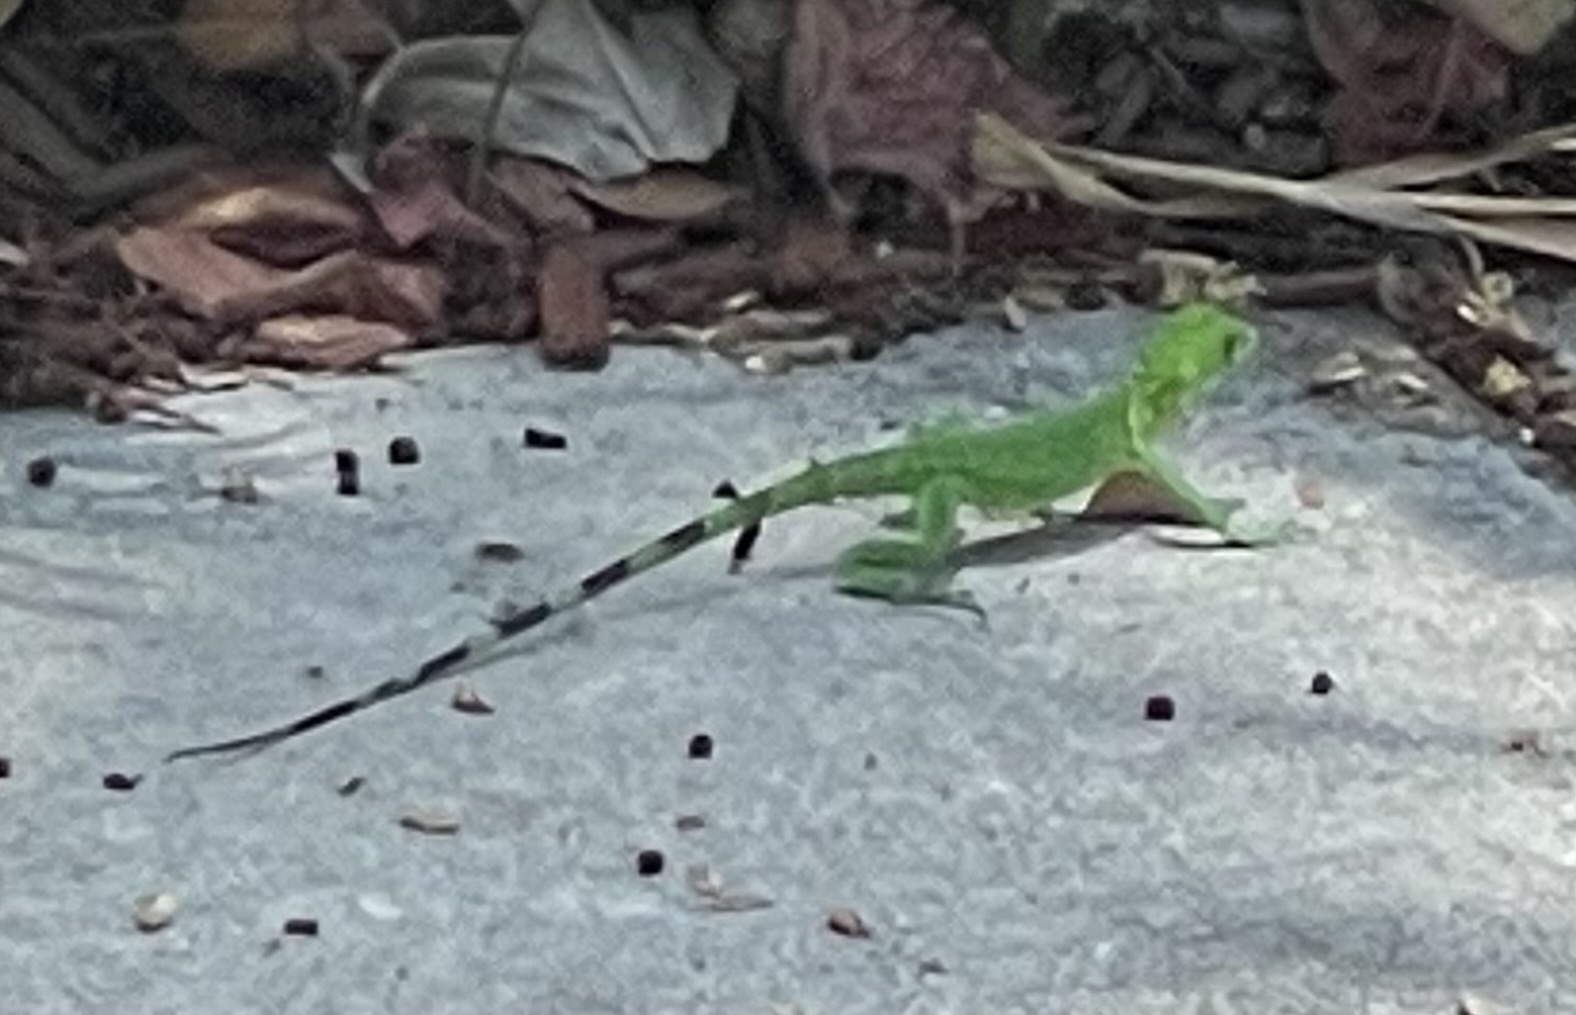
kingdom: Animalia
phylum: Chordata
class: Squamata
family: Iguanidae
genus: Iguana
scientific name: Iguana iguana
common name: Green iguana
